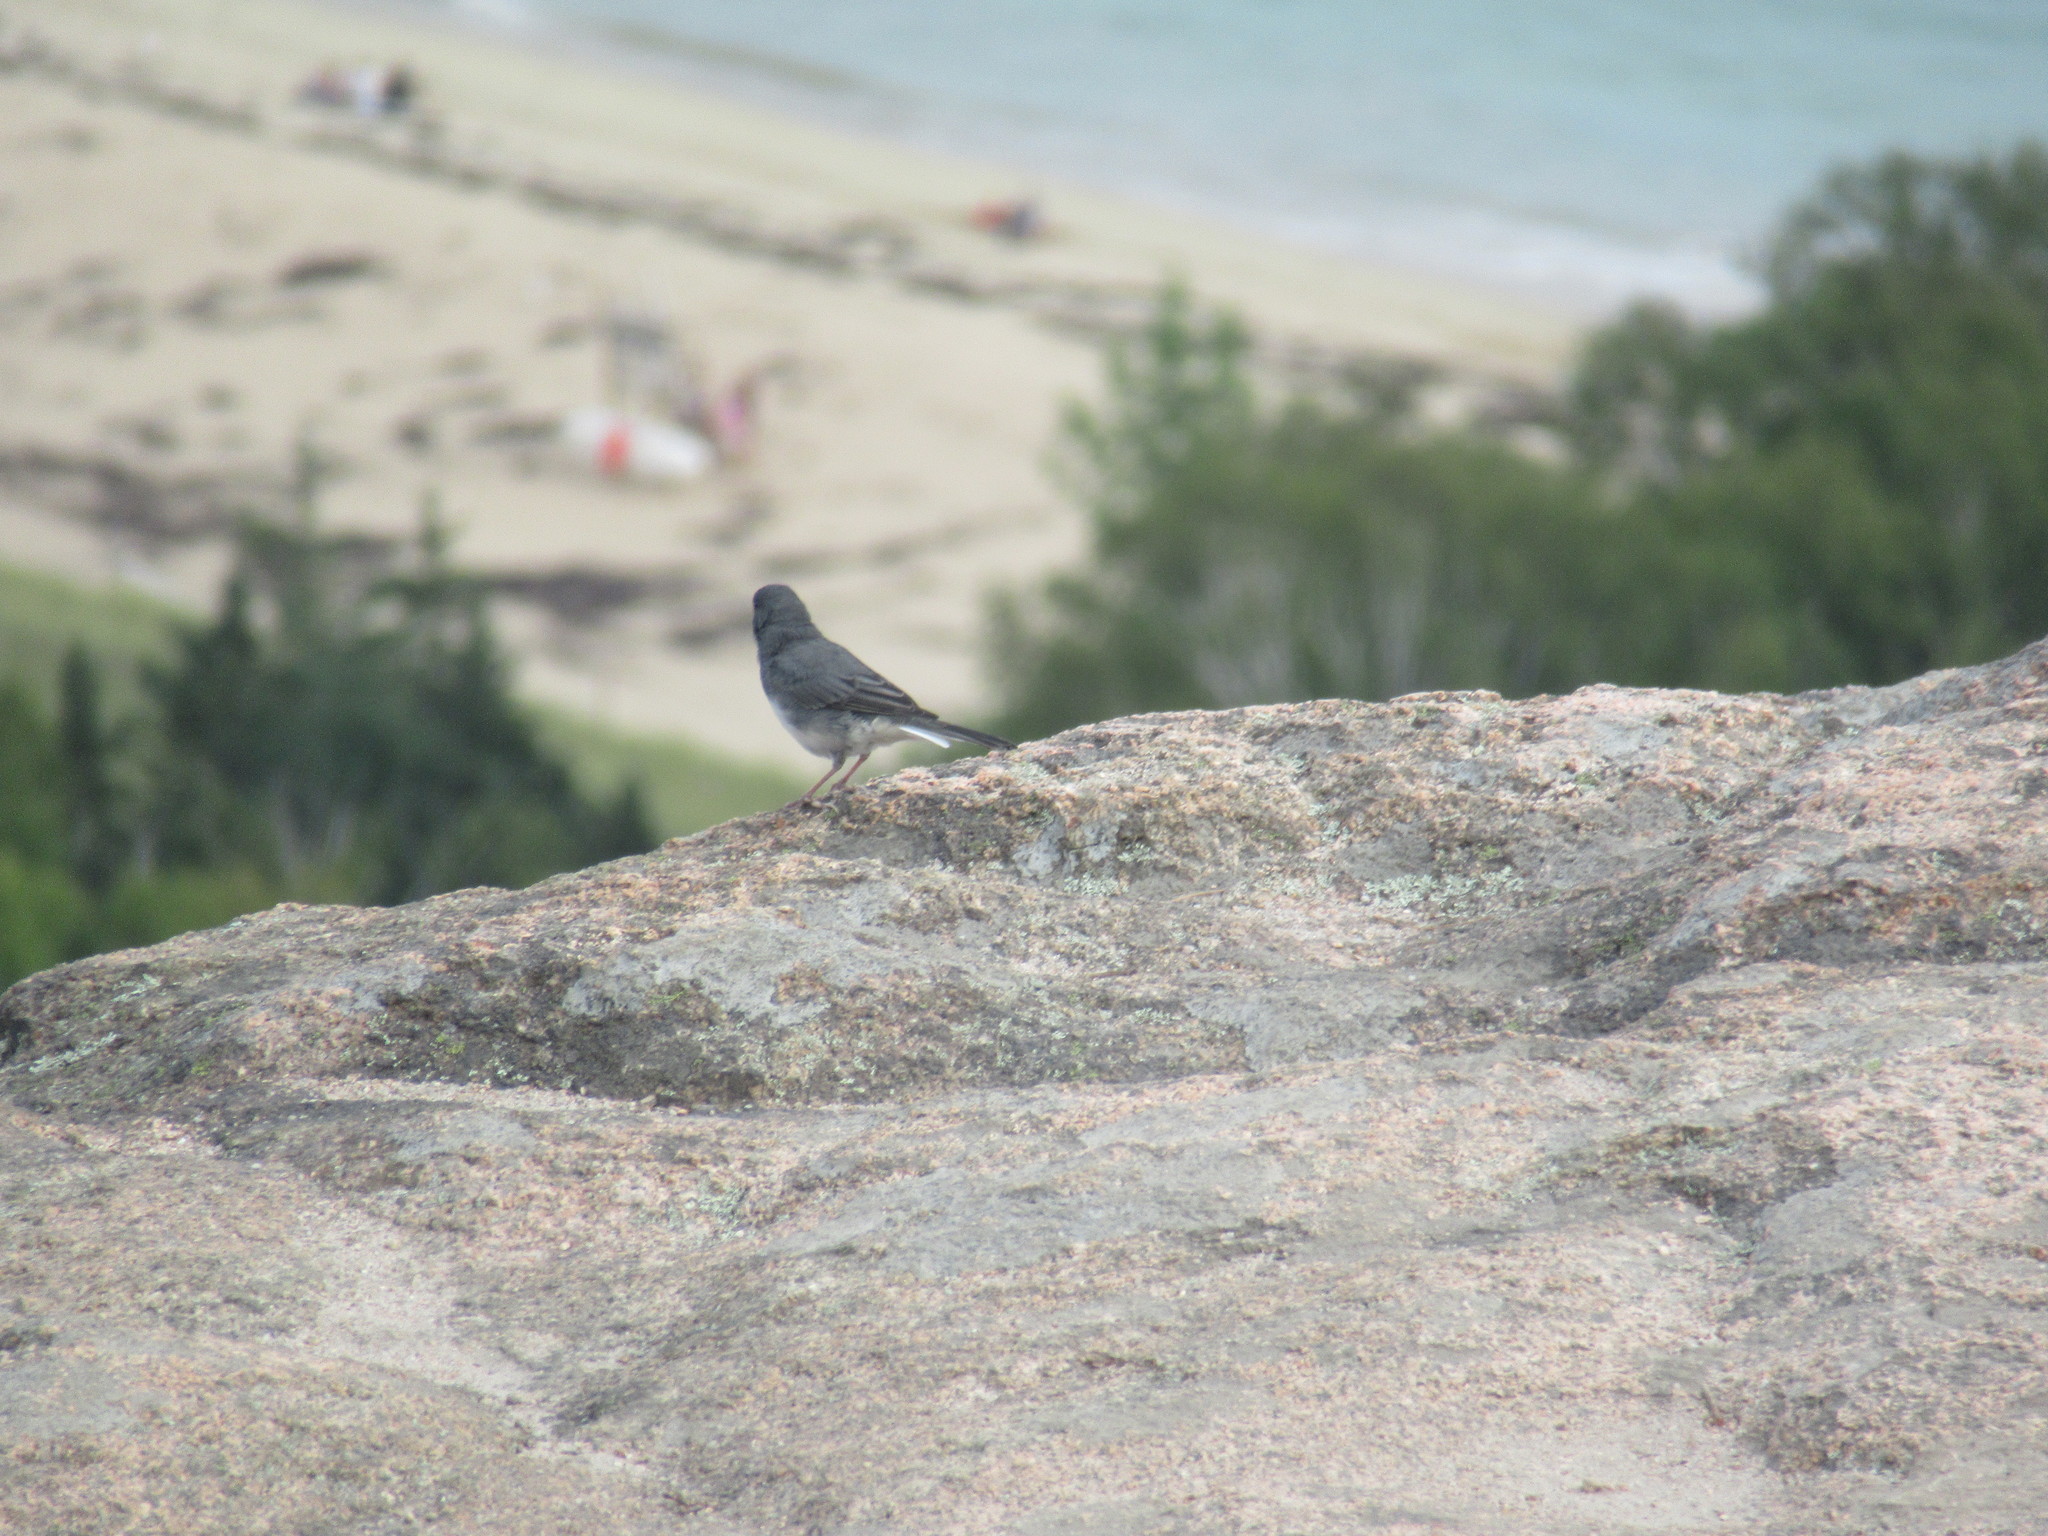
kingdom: Animalia
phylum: Chordata
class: Aves
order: Passeriformes
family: Passerellidae
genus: Junco
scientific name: Junco hyemalis
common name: Dark-eyed junco
